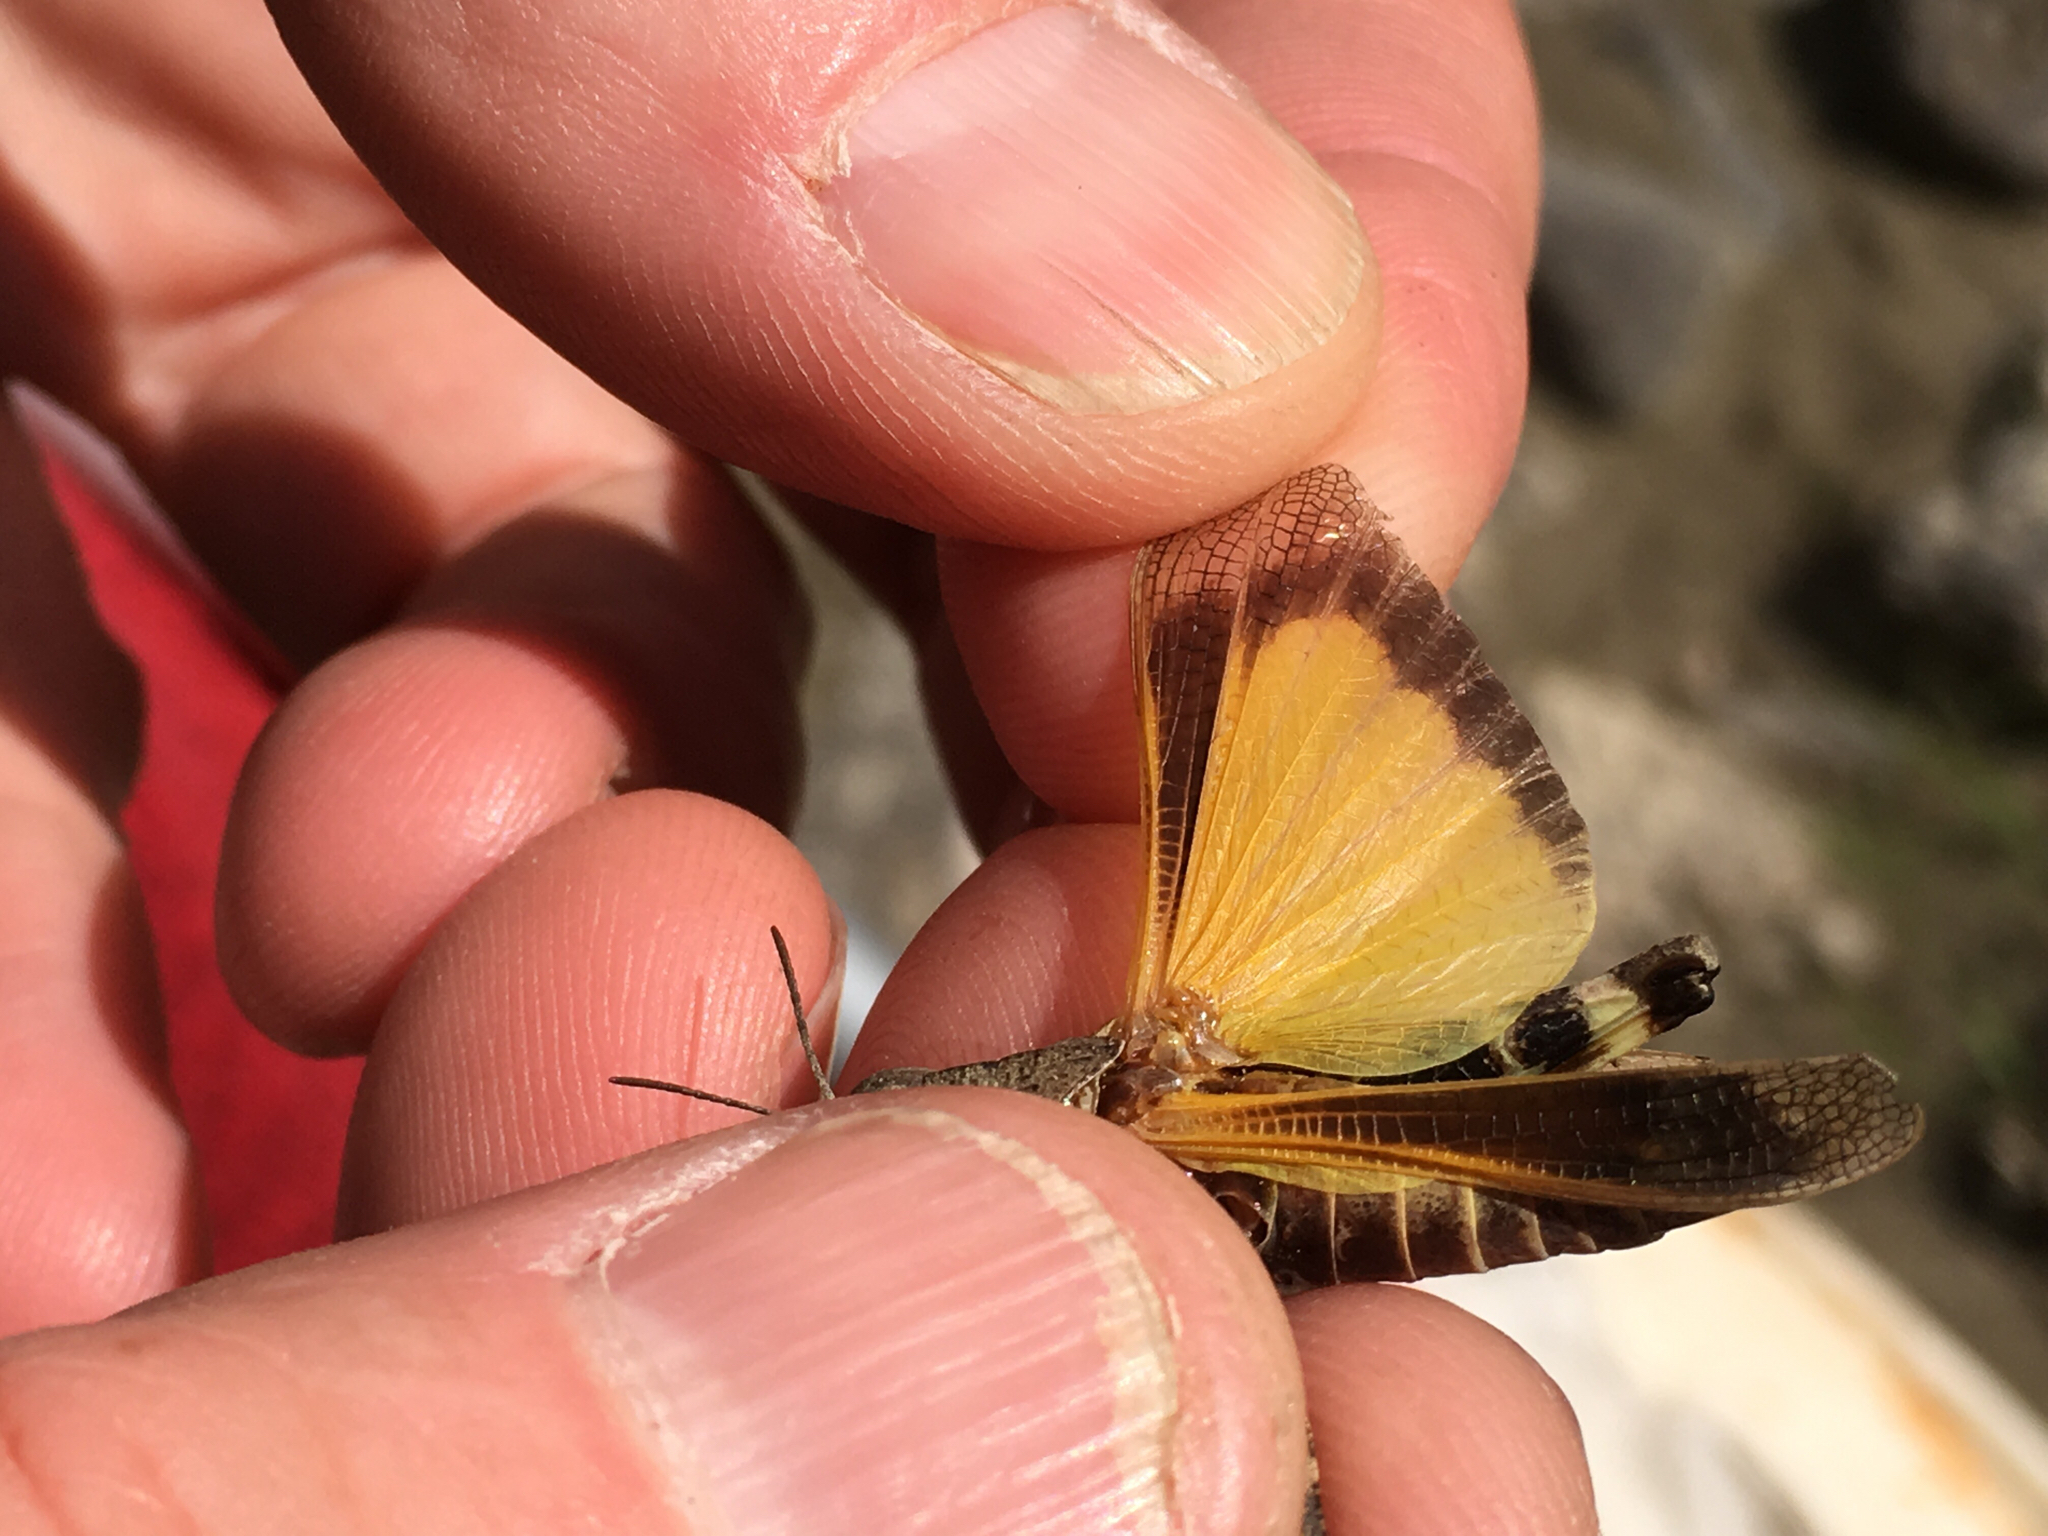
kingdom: Animalia
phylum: Arthropoda
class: Insecta
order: Orthoptera
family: Acrididae
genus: Arphia
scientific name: Arphia conspersa
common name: Speckle-winged rangeland grasshopper
